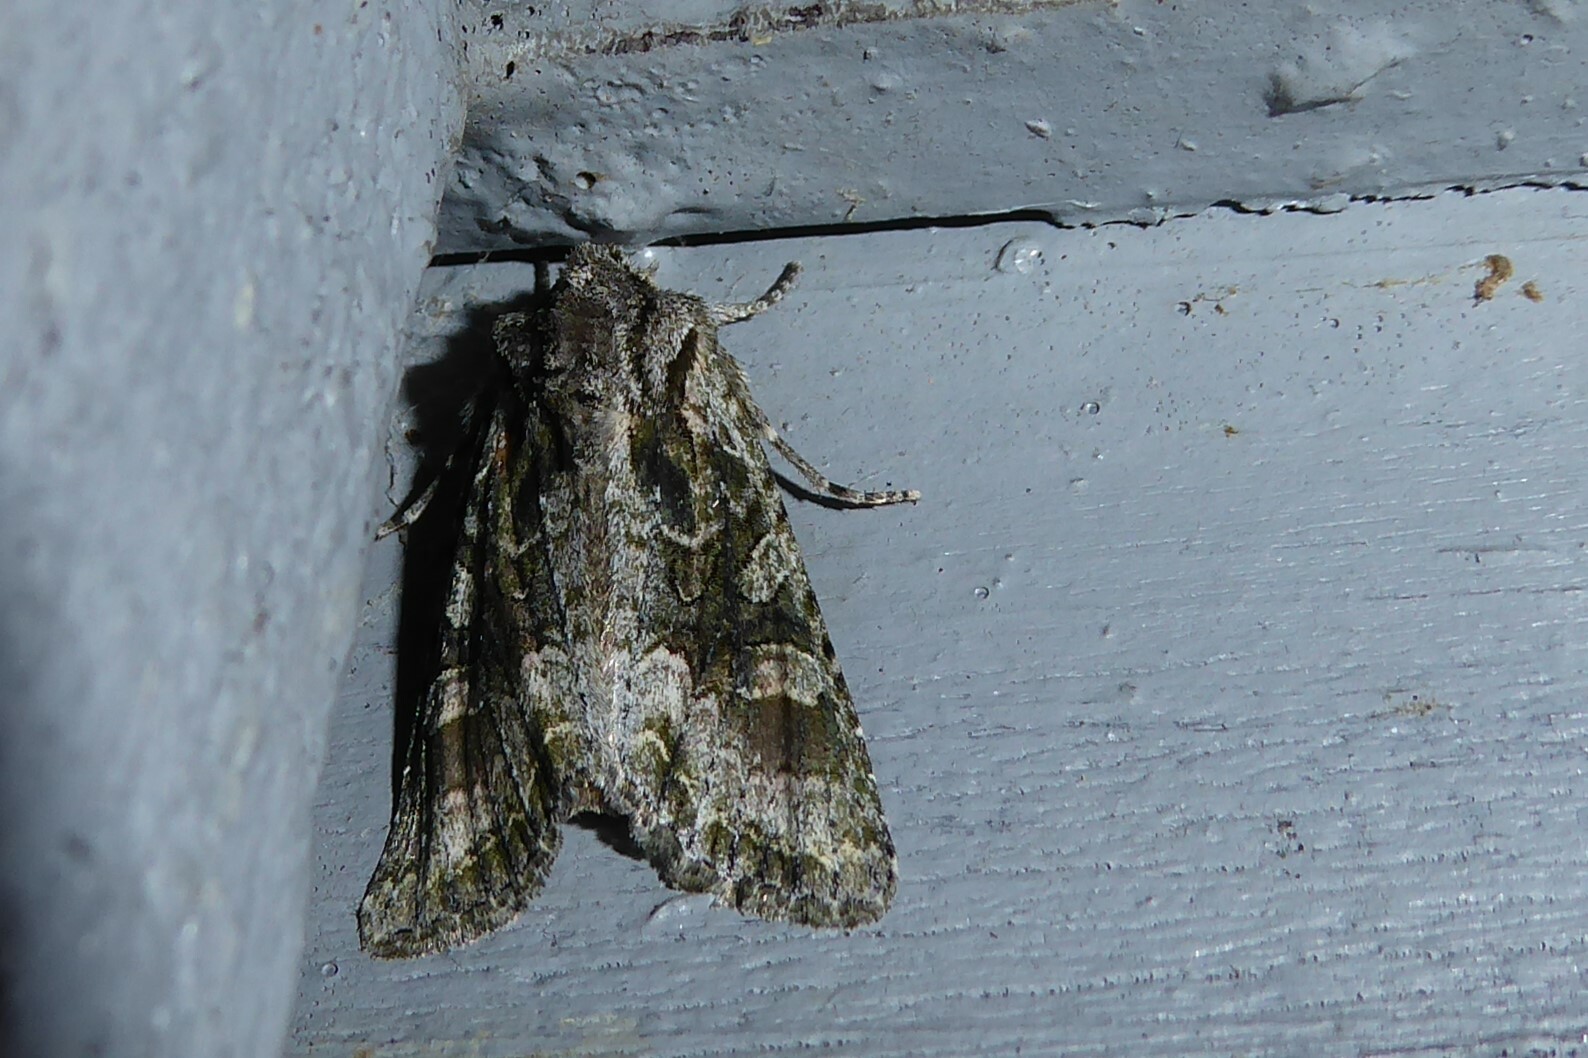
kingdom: Animalia
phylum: Arthropoda
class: Insecta
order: Lepidoptera
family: Noctuidae
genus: Ichneutica
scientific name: Ichneutica mutans
